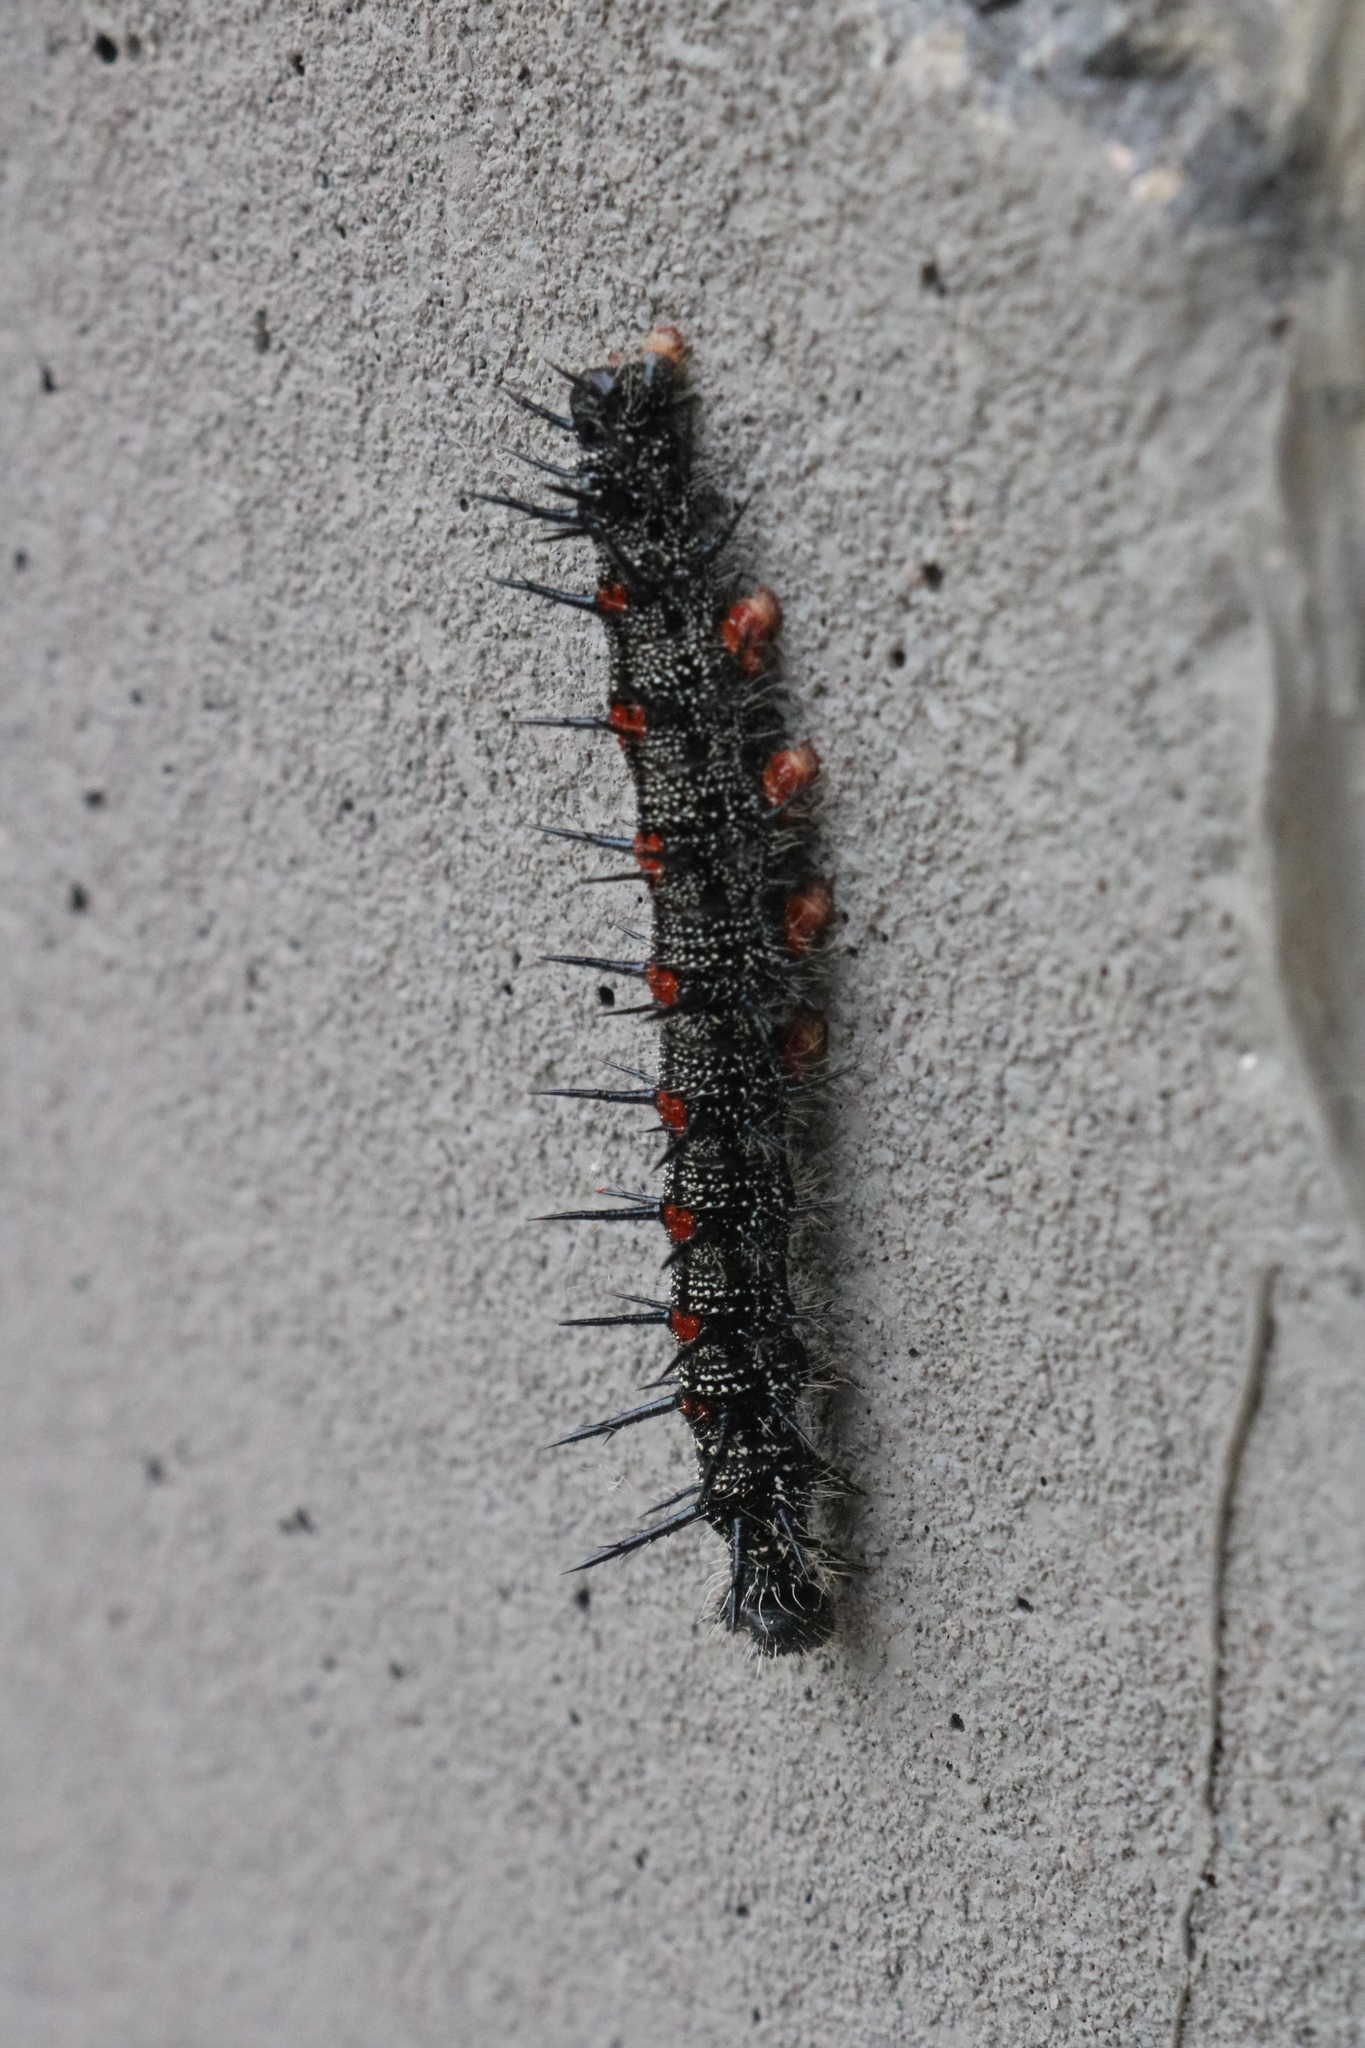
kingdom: Animalia
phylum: Arthropoda
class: Insecta
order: Lepidoptera
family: Nymphalidae
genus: Nymphalis
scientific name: Nymphalis antiopa
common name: Camberwell beauty
